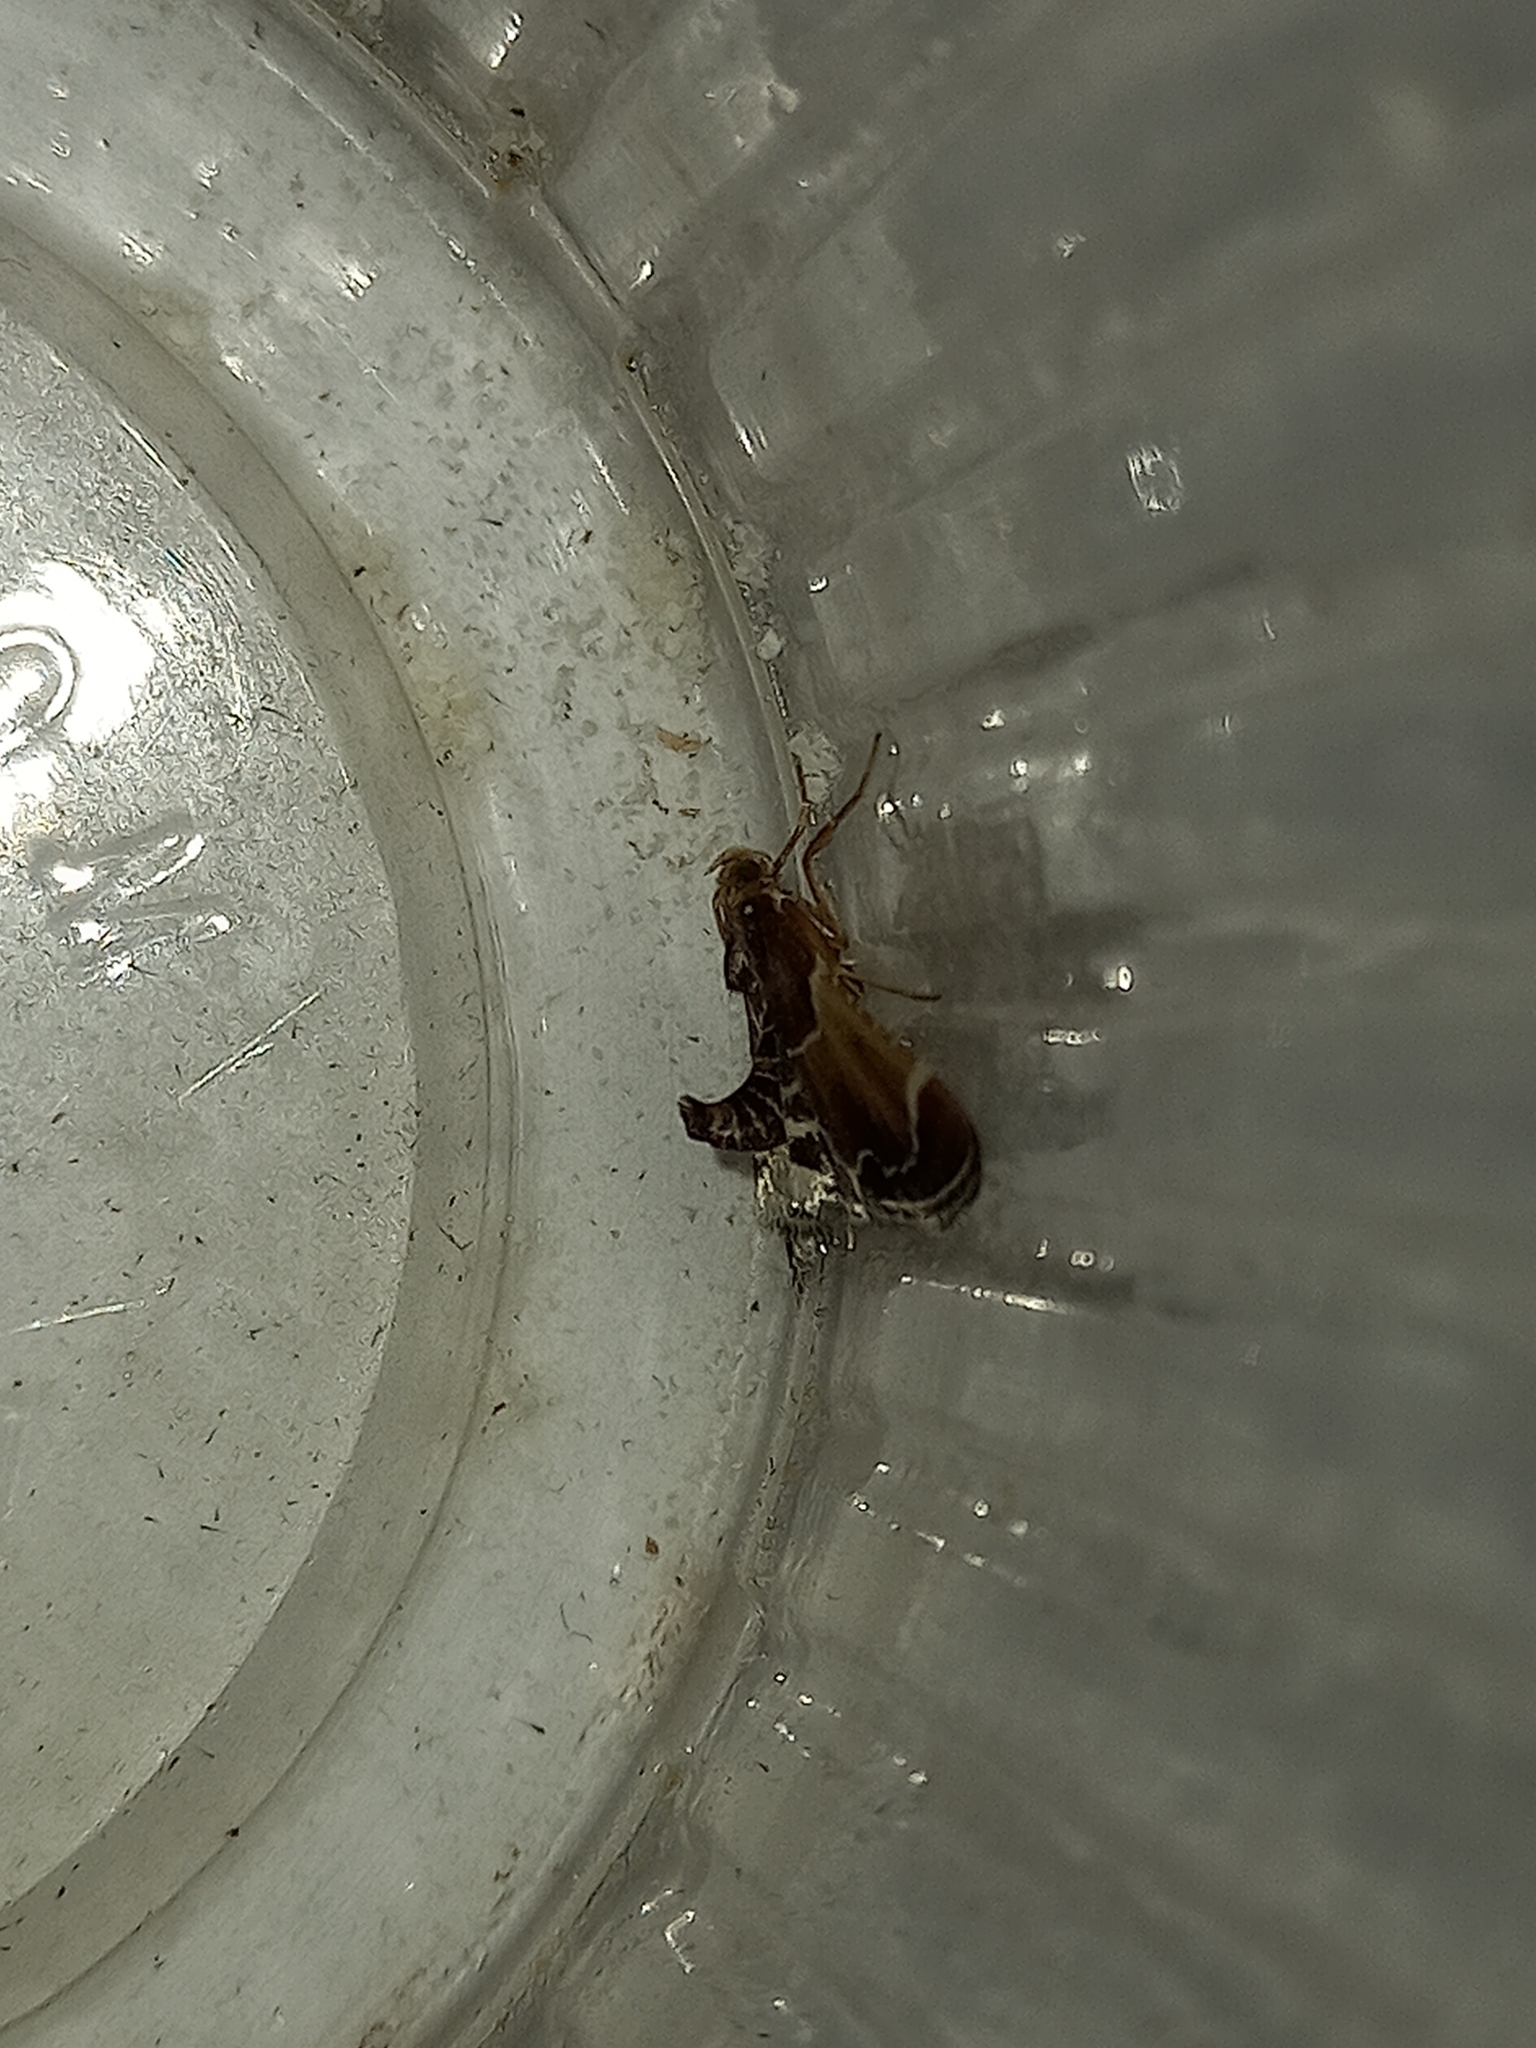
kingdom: Animalia
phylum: Arthropoda
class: Insecta
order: Lepidoptera
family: Pyralidae
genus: Pyralis
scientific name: Pyralis farinalis
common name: Meal moth
